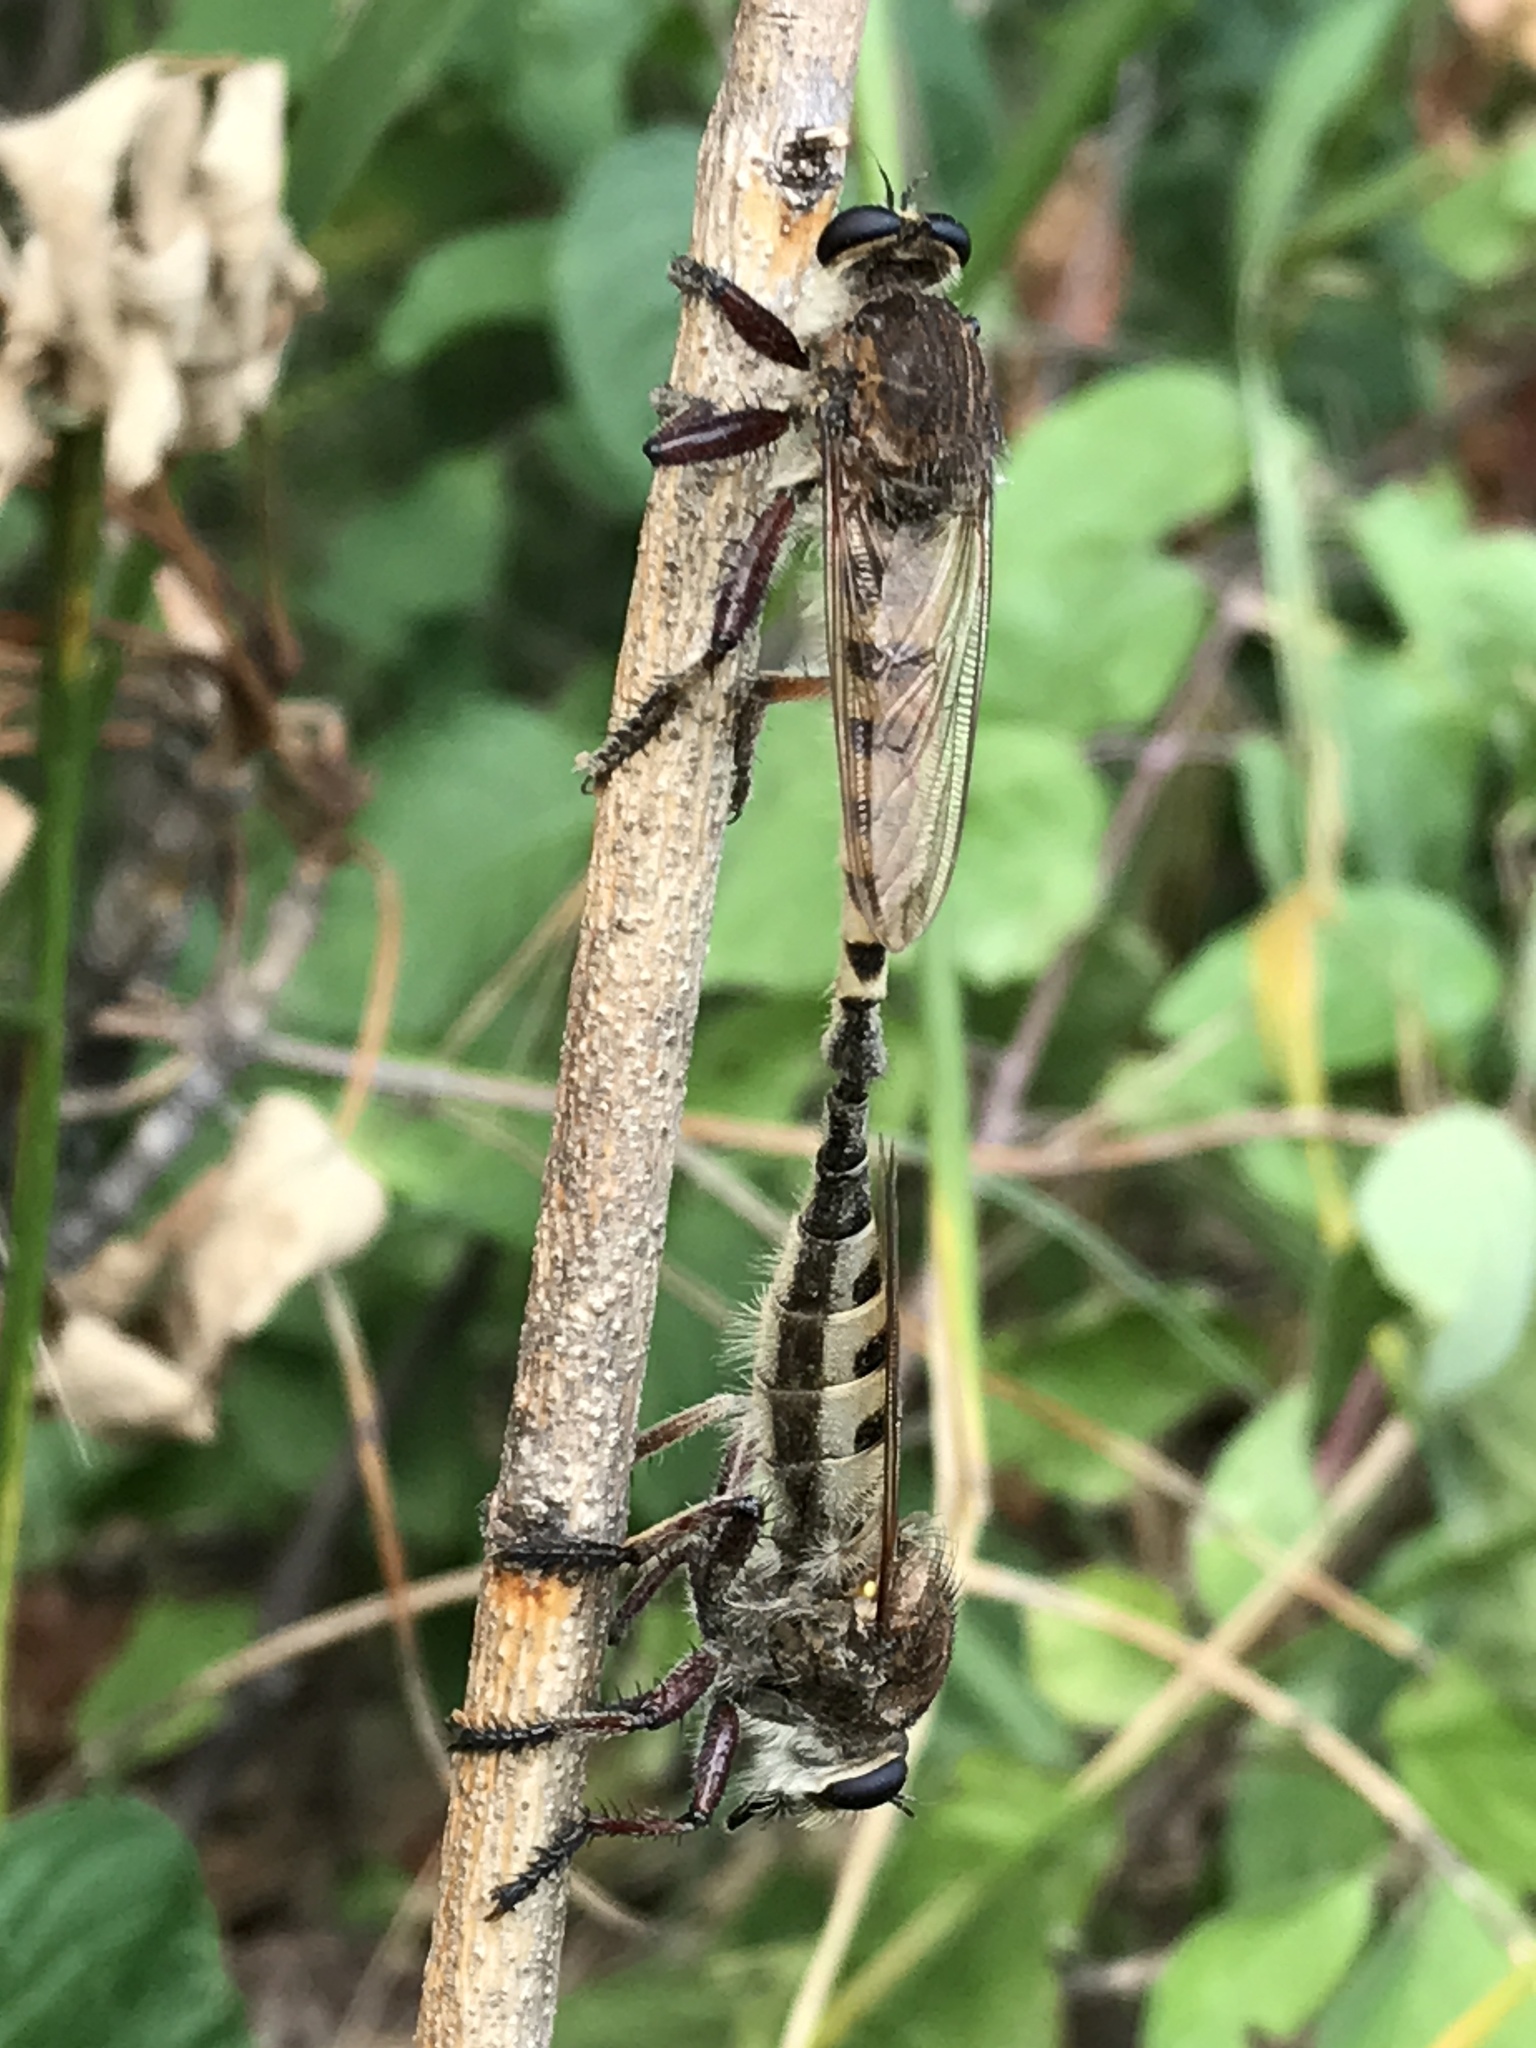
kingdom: Animalia
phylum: Arthropoda
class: Insecta
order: Diptera
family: Asilidae
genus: Promachus
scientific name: Promachus hinei
